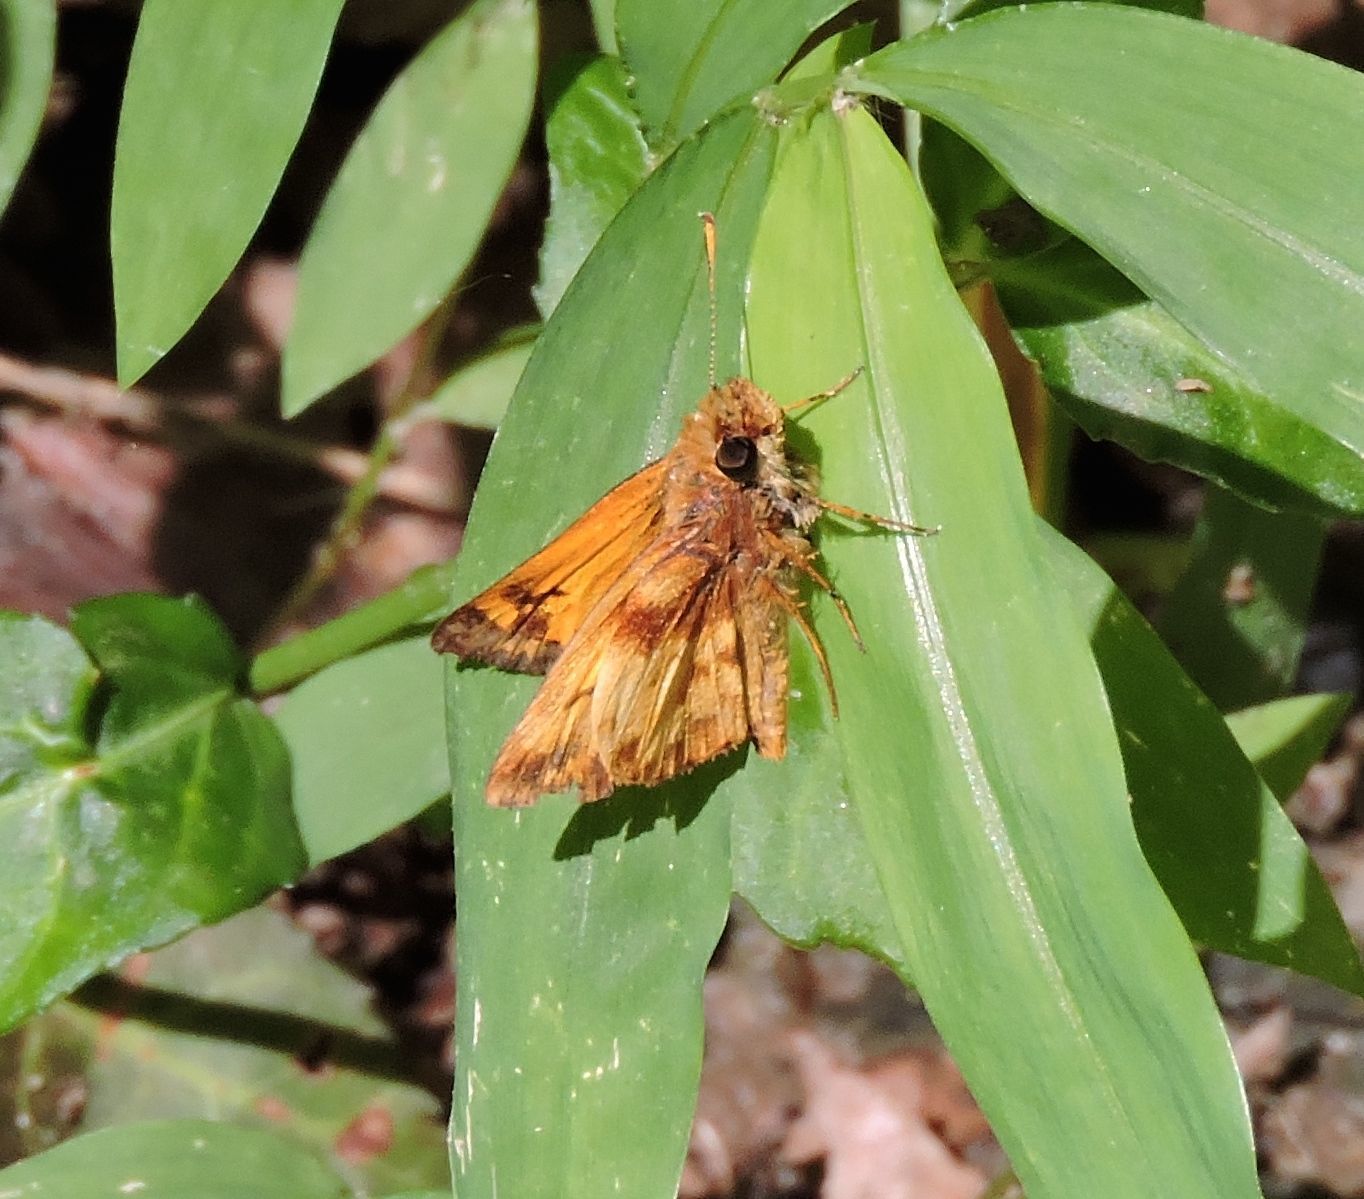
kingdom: Animalia
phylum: Arthropoda
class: Insecta
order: Lepidoptera
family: Hesperiidae
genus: Lon
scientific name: Lon zabulon
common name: Zabulon skipper
